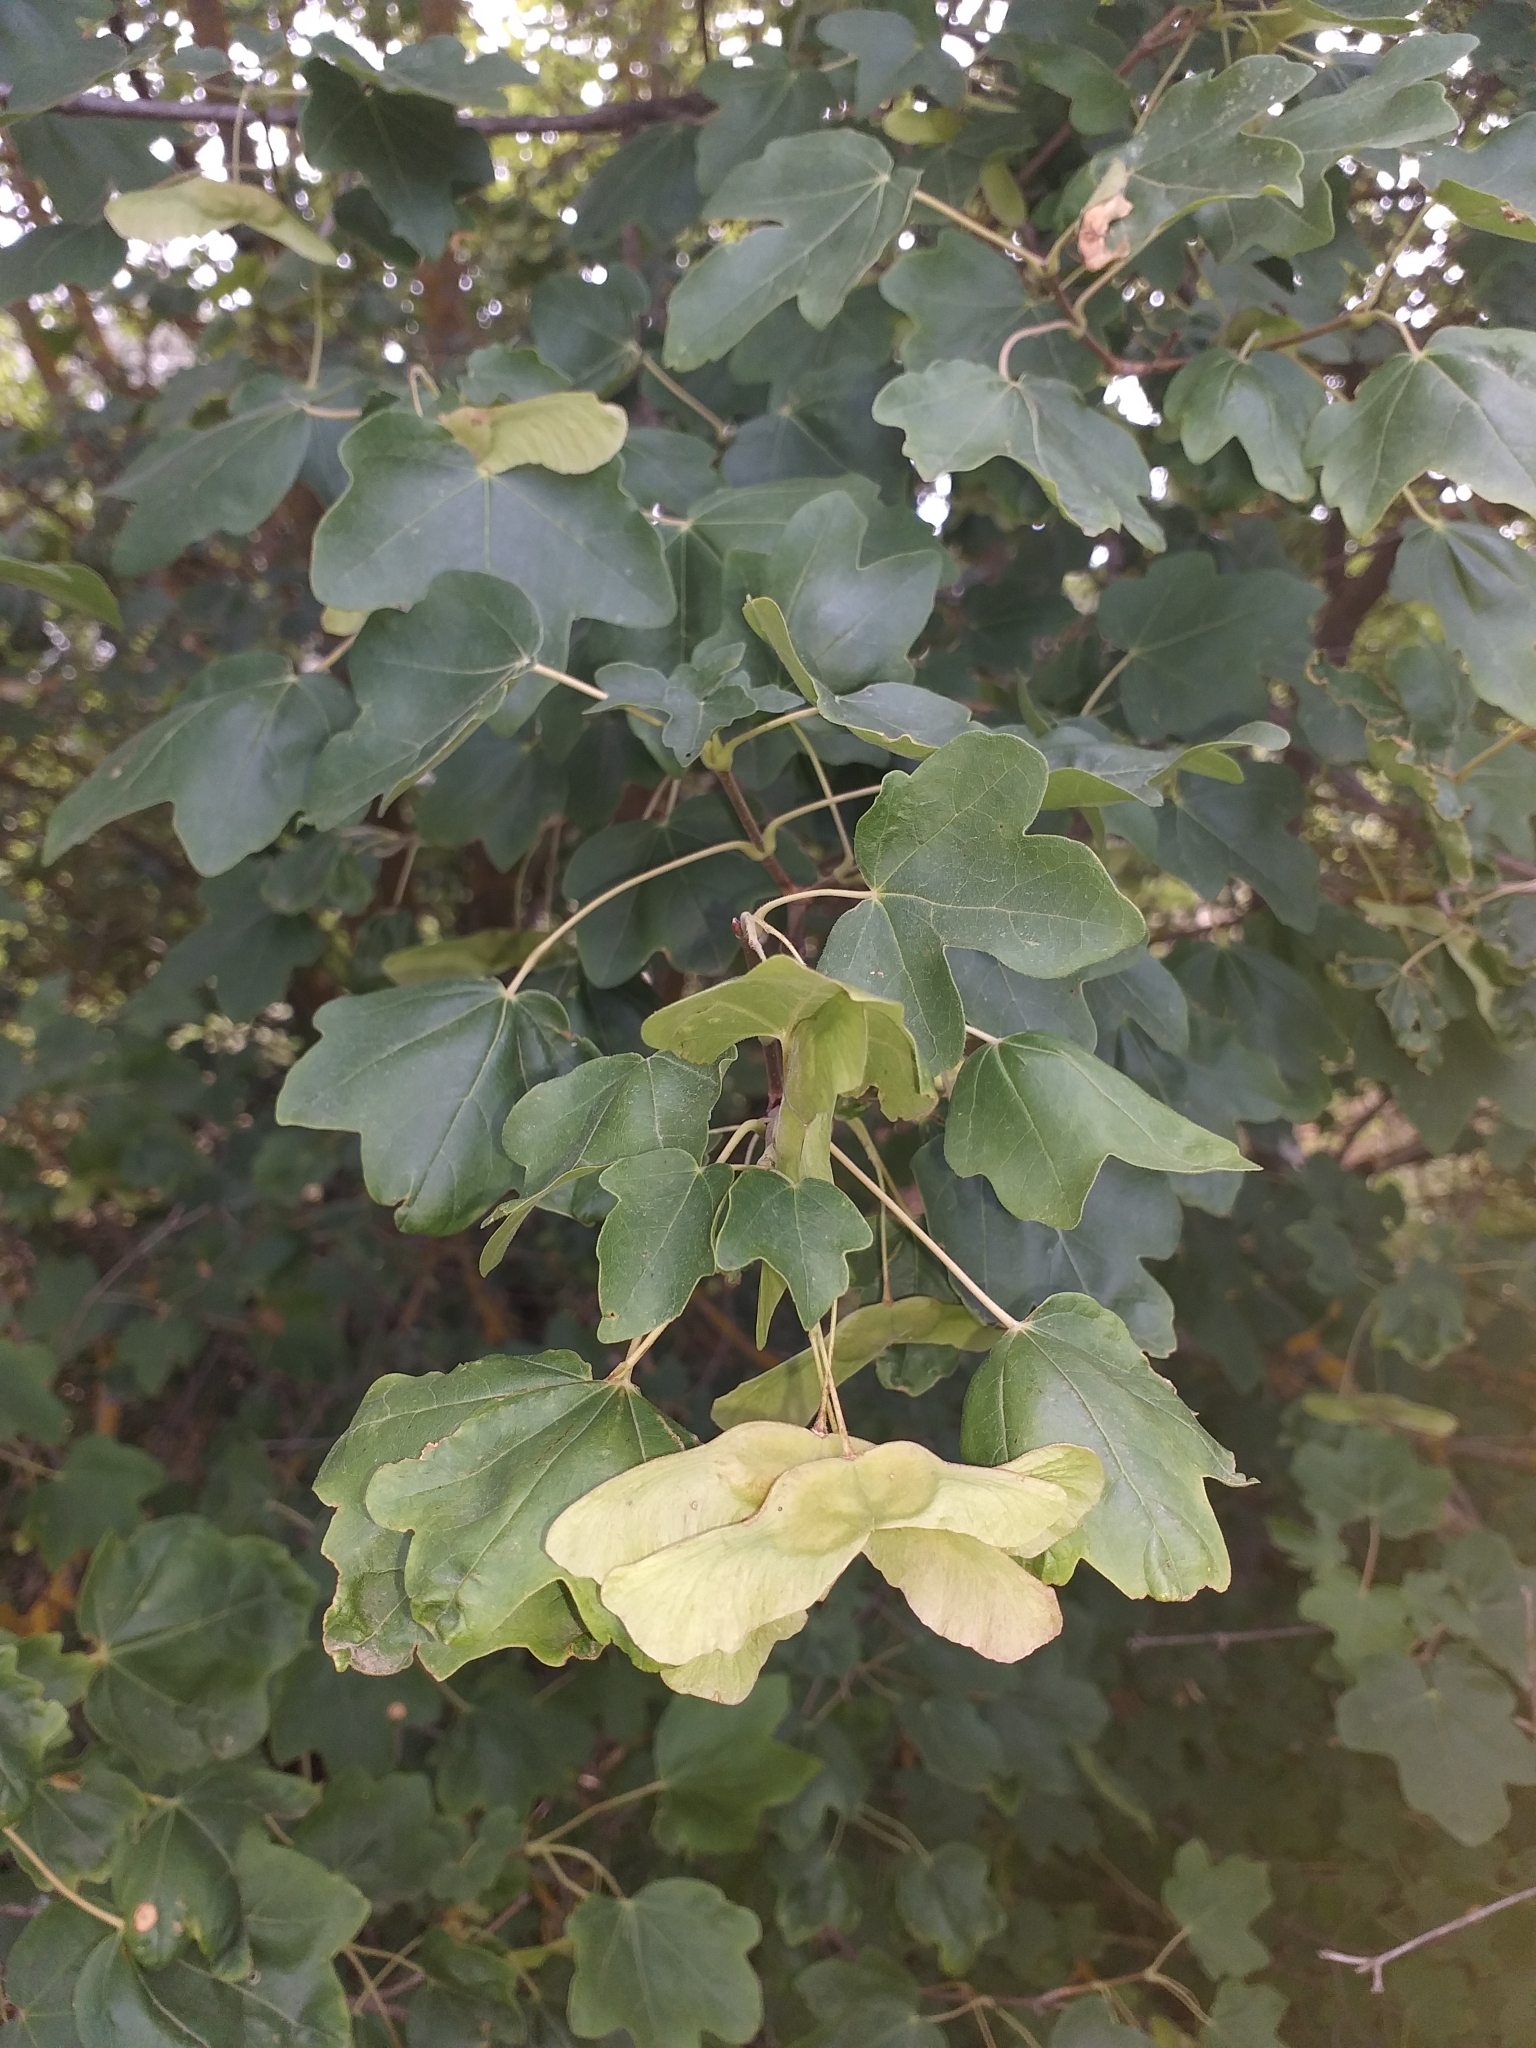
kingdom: Plantae
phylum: Tracheophyta
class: Magnoliopsida
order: Sapindales
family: Sapindaceae
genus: Acer
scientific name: Acer campestre
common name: Field maple
